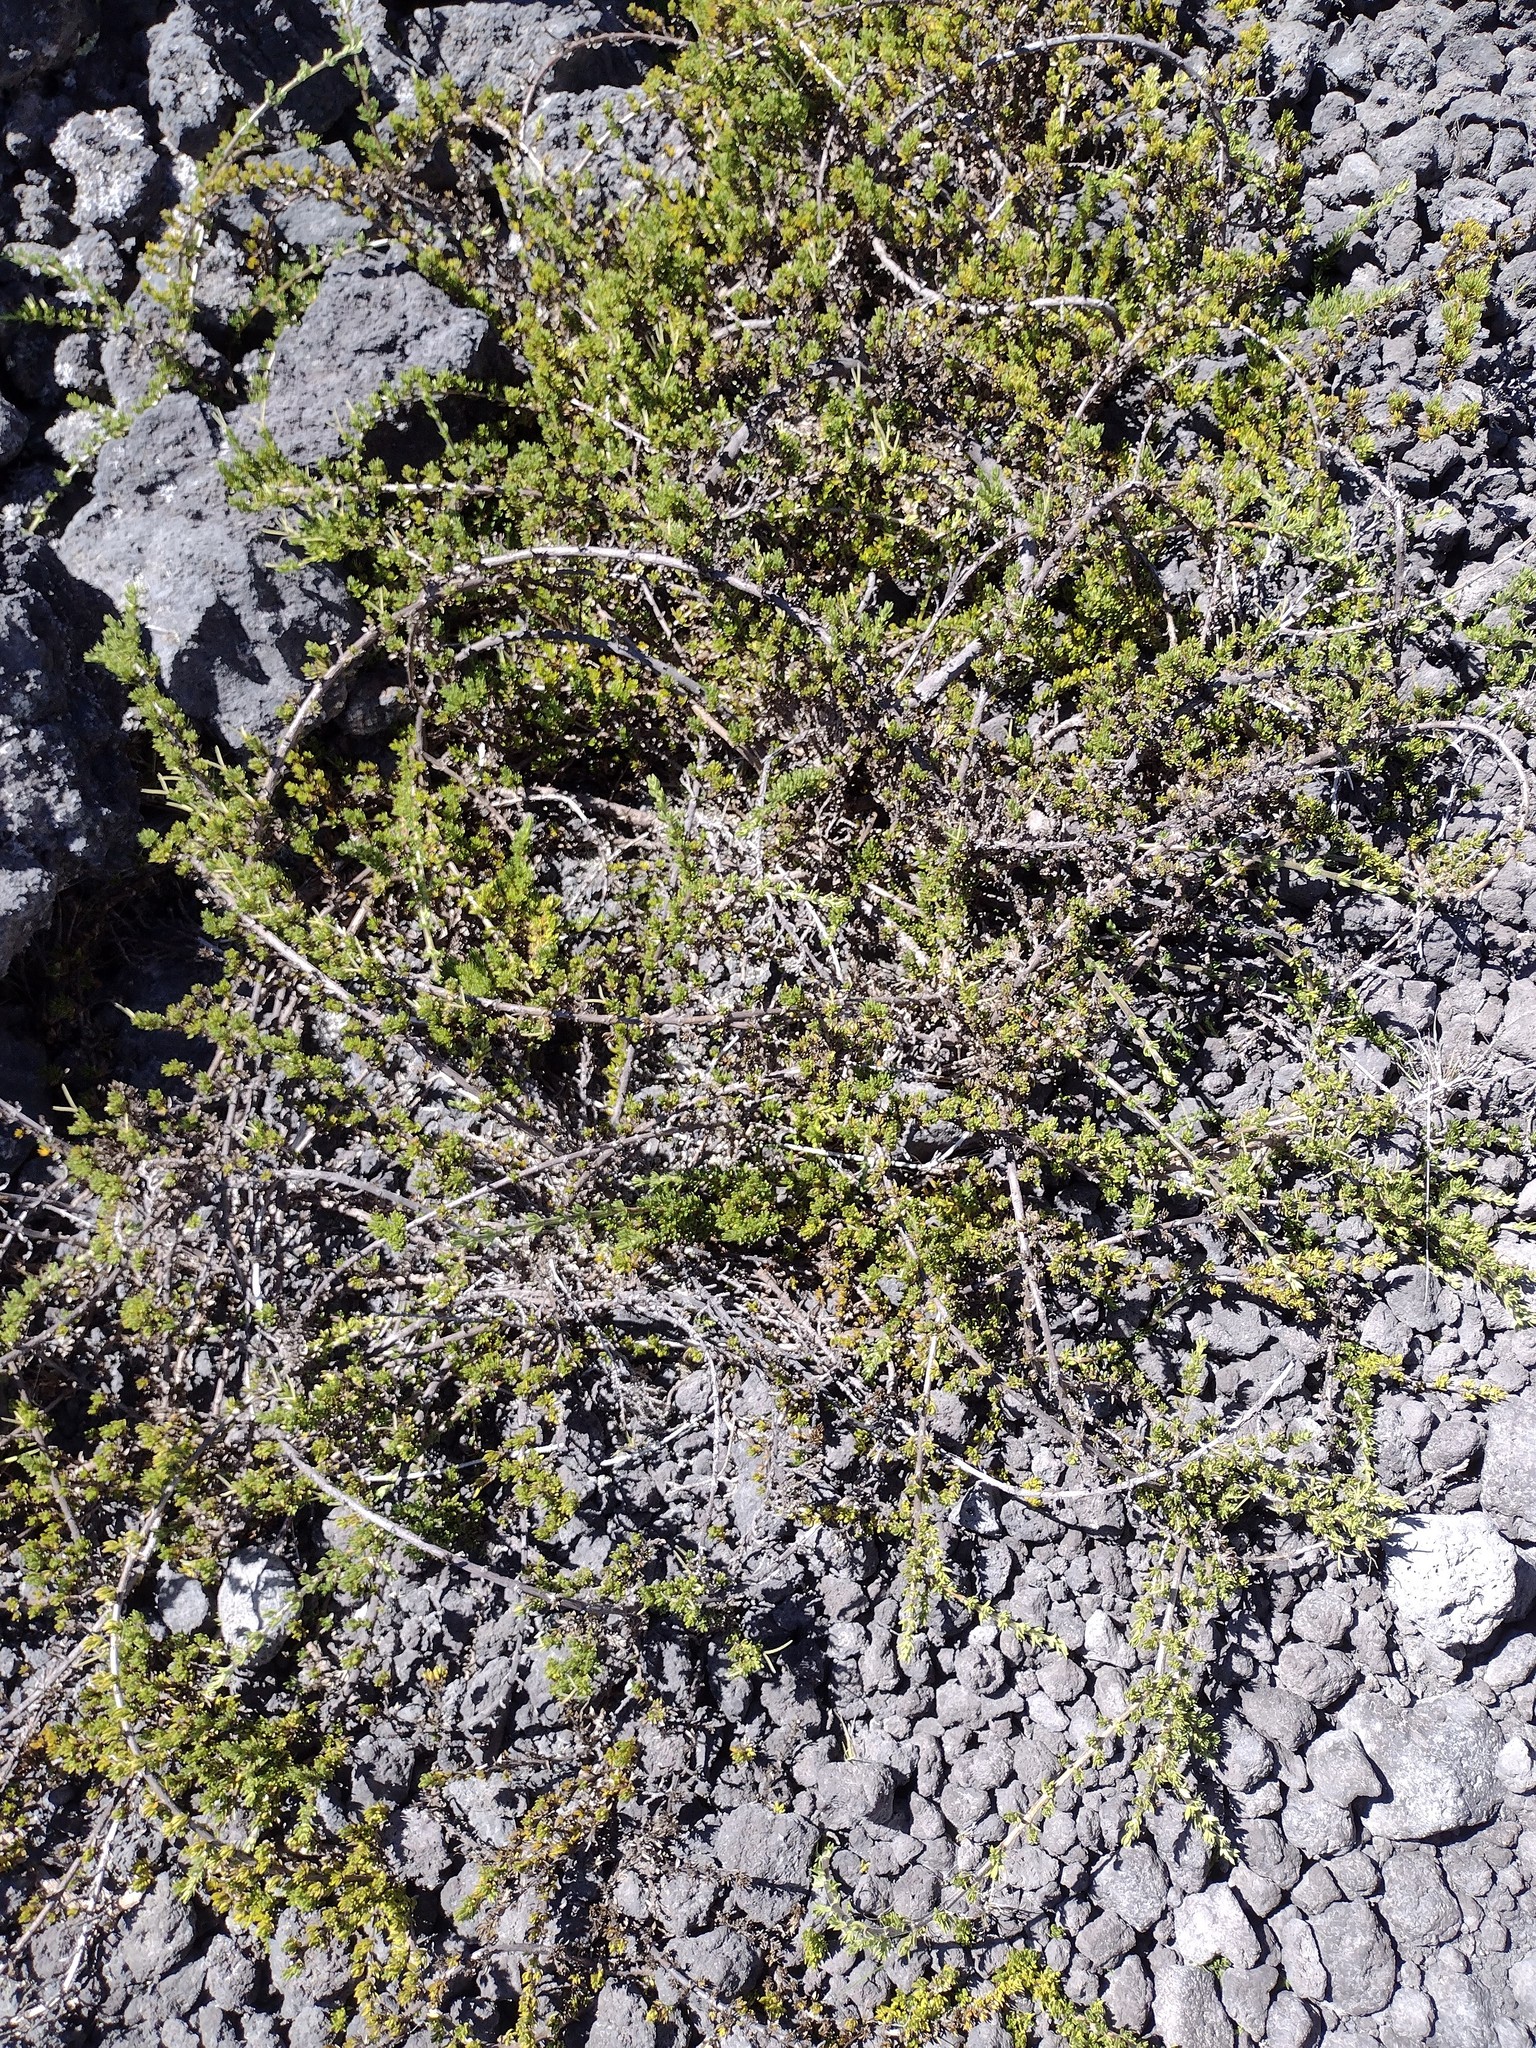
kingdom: Plantae
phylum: Tracheophyta
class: Magnoliopsida
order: Gentianales
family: Rubiaceae
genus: Coprosma
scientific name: Coprosma ernodeoides
